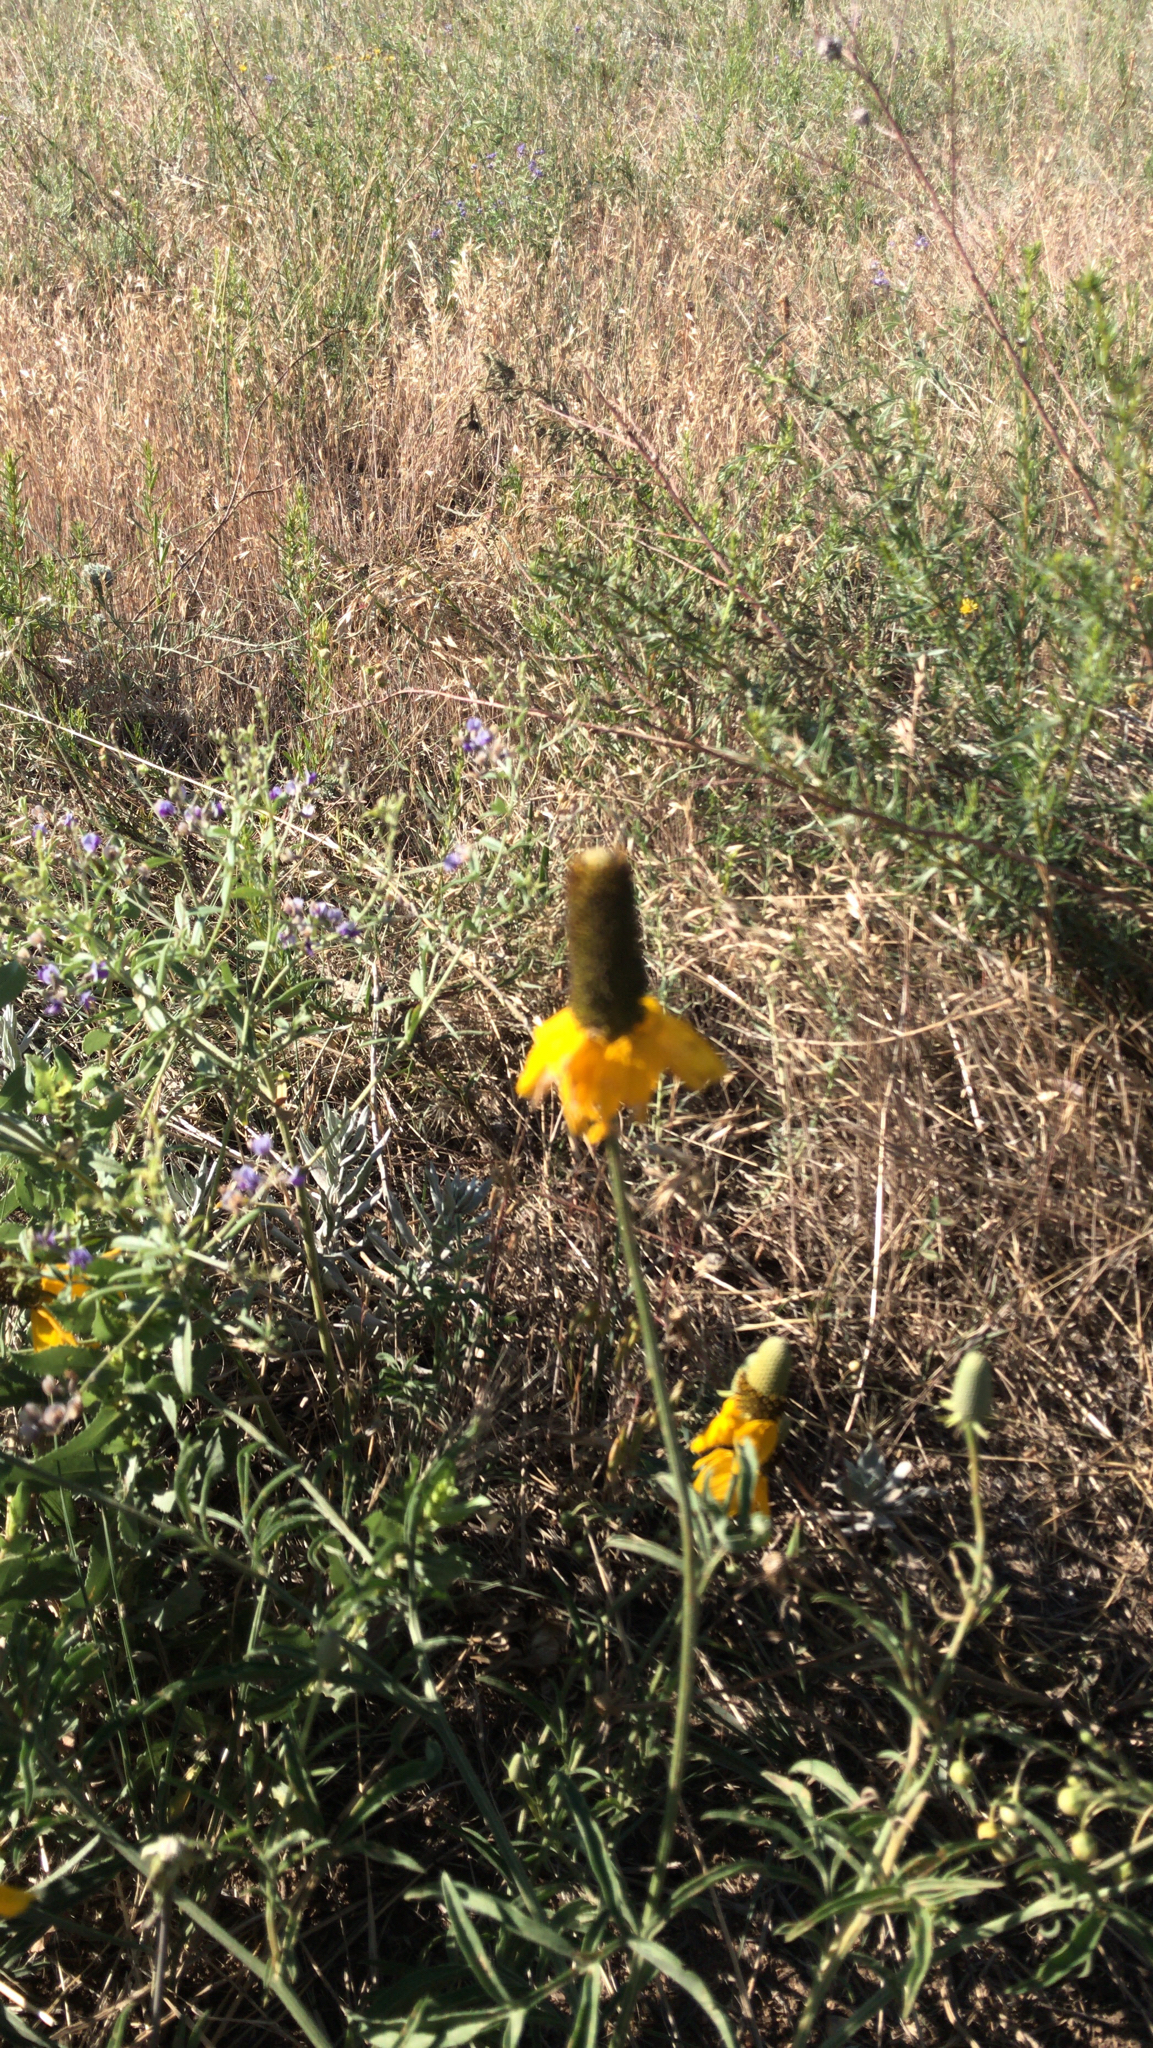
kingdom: Plantae
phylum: Tracheophyta
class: Magnoliopsida
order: Asterales
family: Asteraceae
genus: Ratibida
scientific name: Ratibida columnifera
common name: Prairie coneflower
